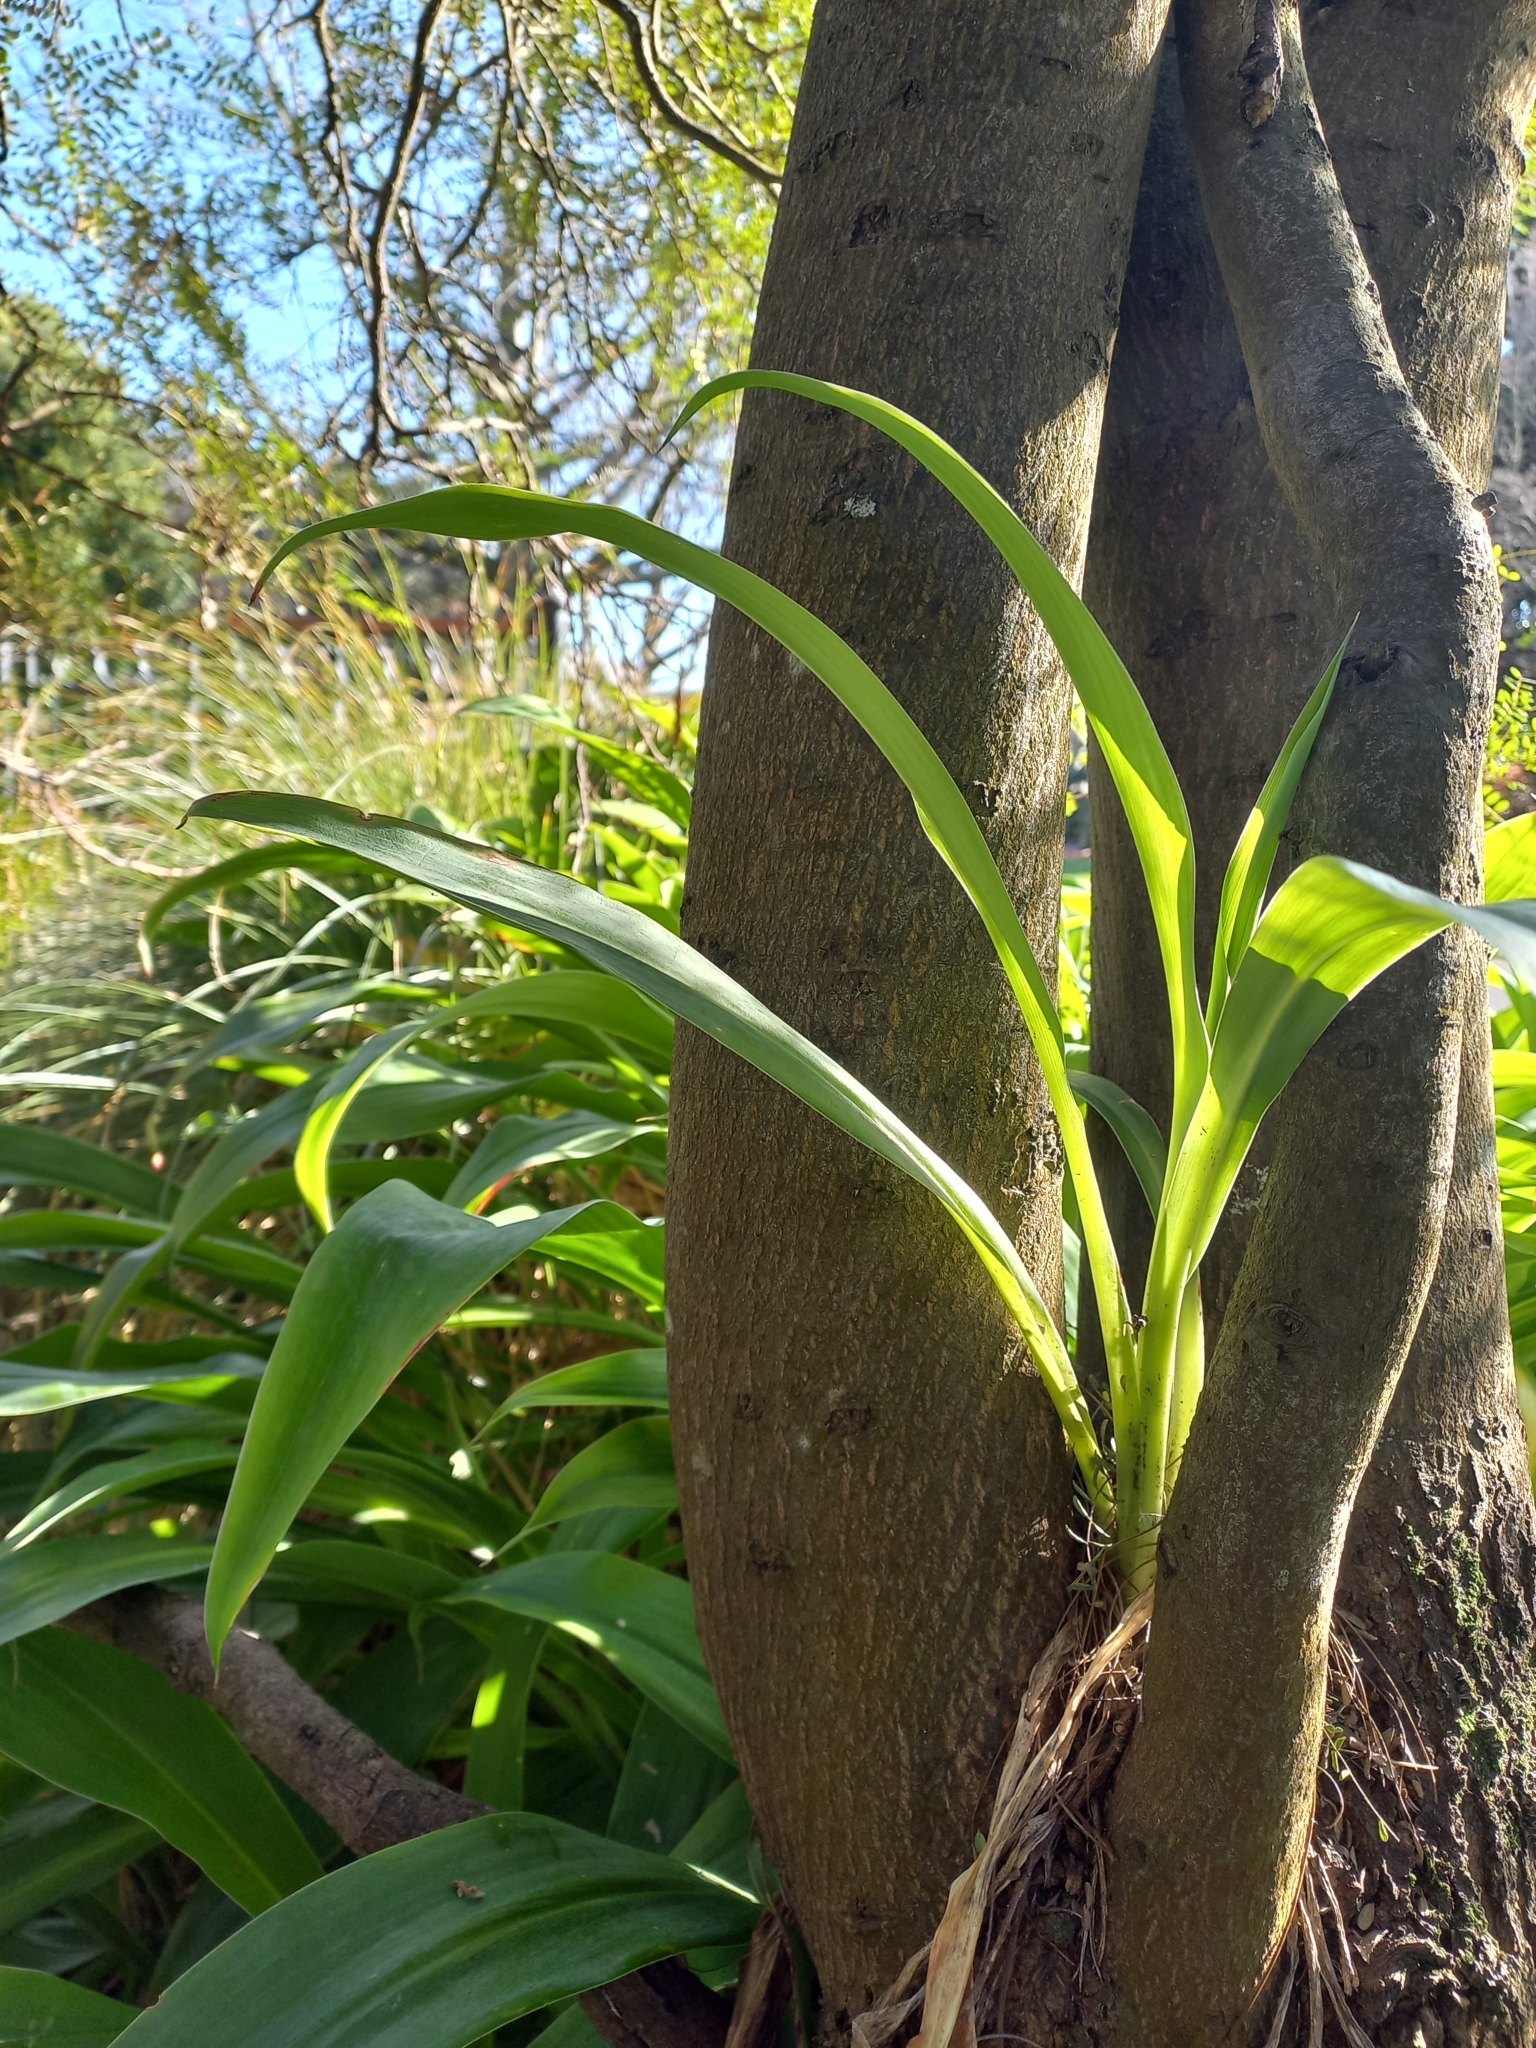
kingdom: Plantae
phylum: Tracheophyta
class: Liliopsida
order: Asparagales
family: Asparagaceae
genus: Arthropodium
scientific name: Arthropodium cirratum
